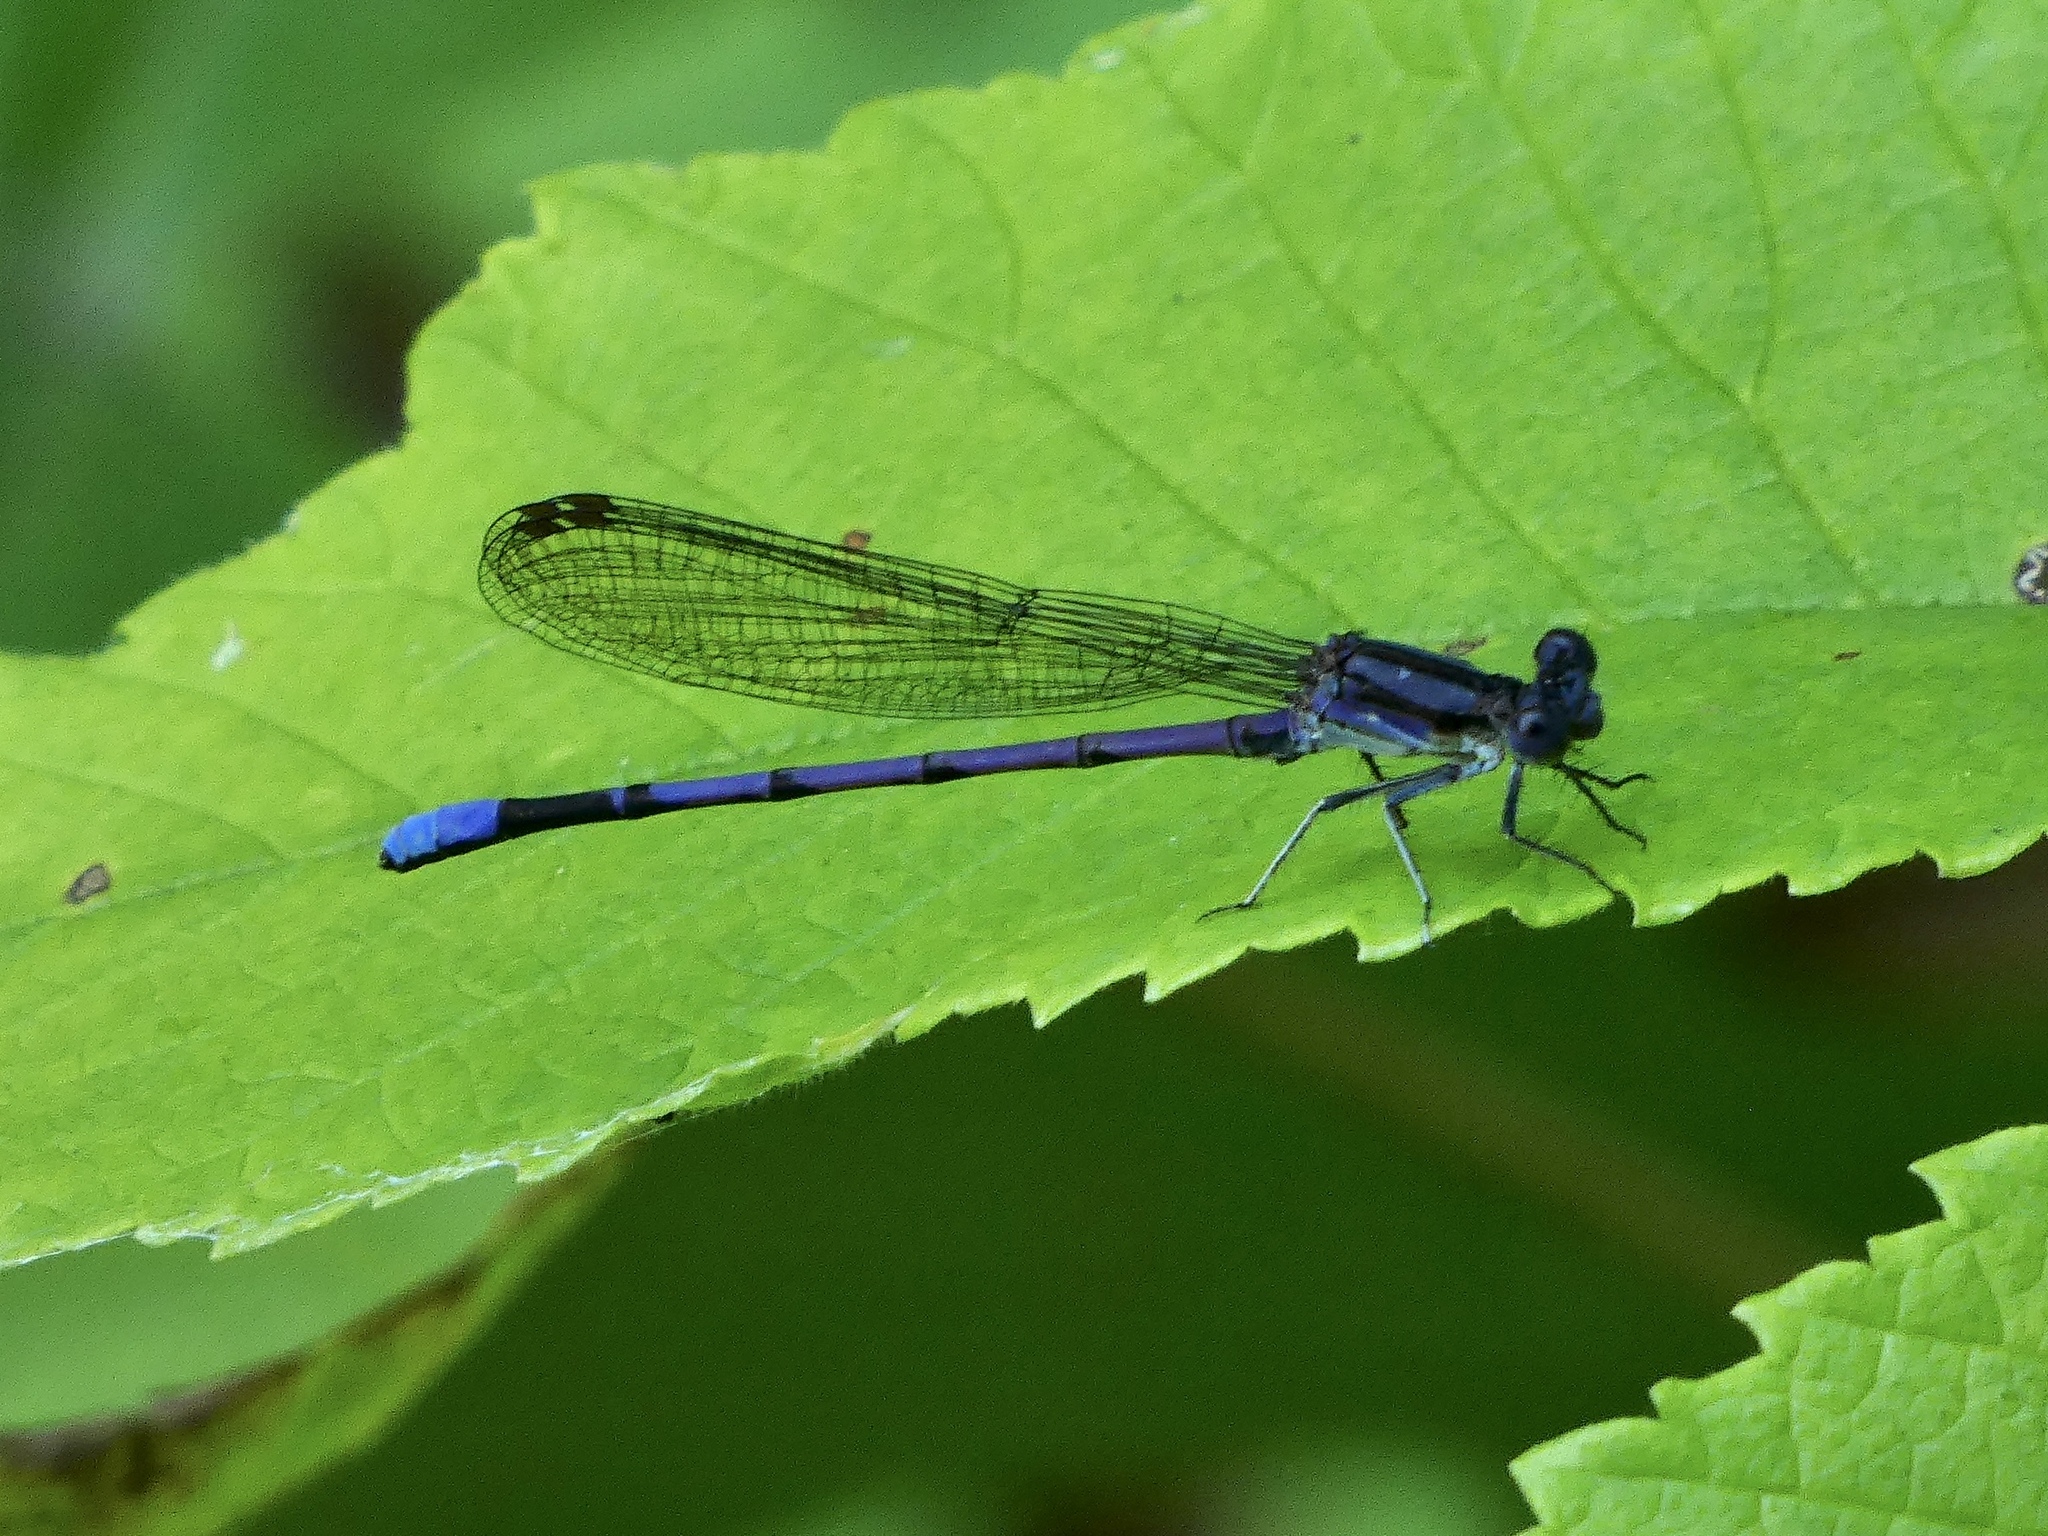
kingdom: Animalia
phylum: Arthropoda
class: Insecta
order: Odonata
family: Coenagrionidae
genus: Argia
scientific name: Argia fumipennis
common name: Variable dancer
